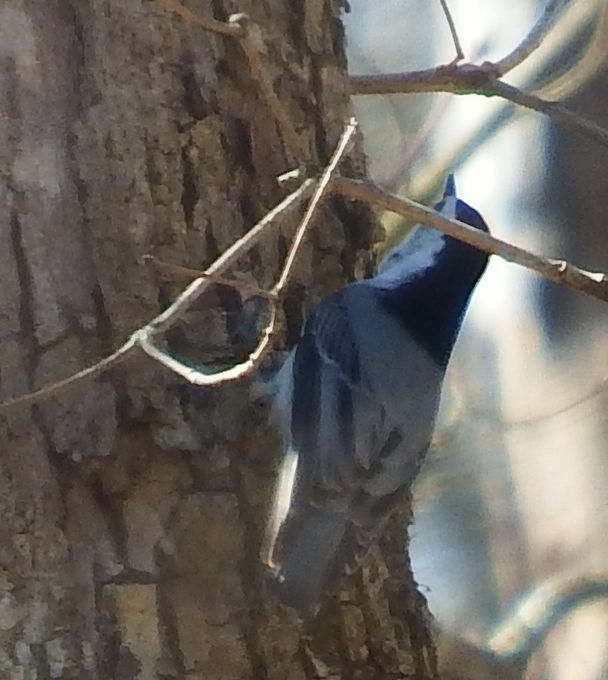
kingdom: Animalia
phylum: Chordata
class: Aves
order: Passeriformes
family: Sittidae
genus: Sitta
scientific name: Sitta carolinensis
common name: White-breasted nuthatch
